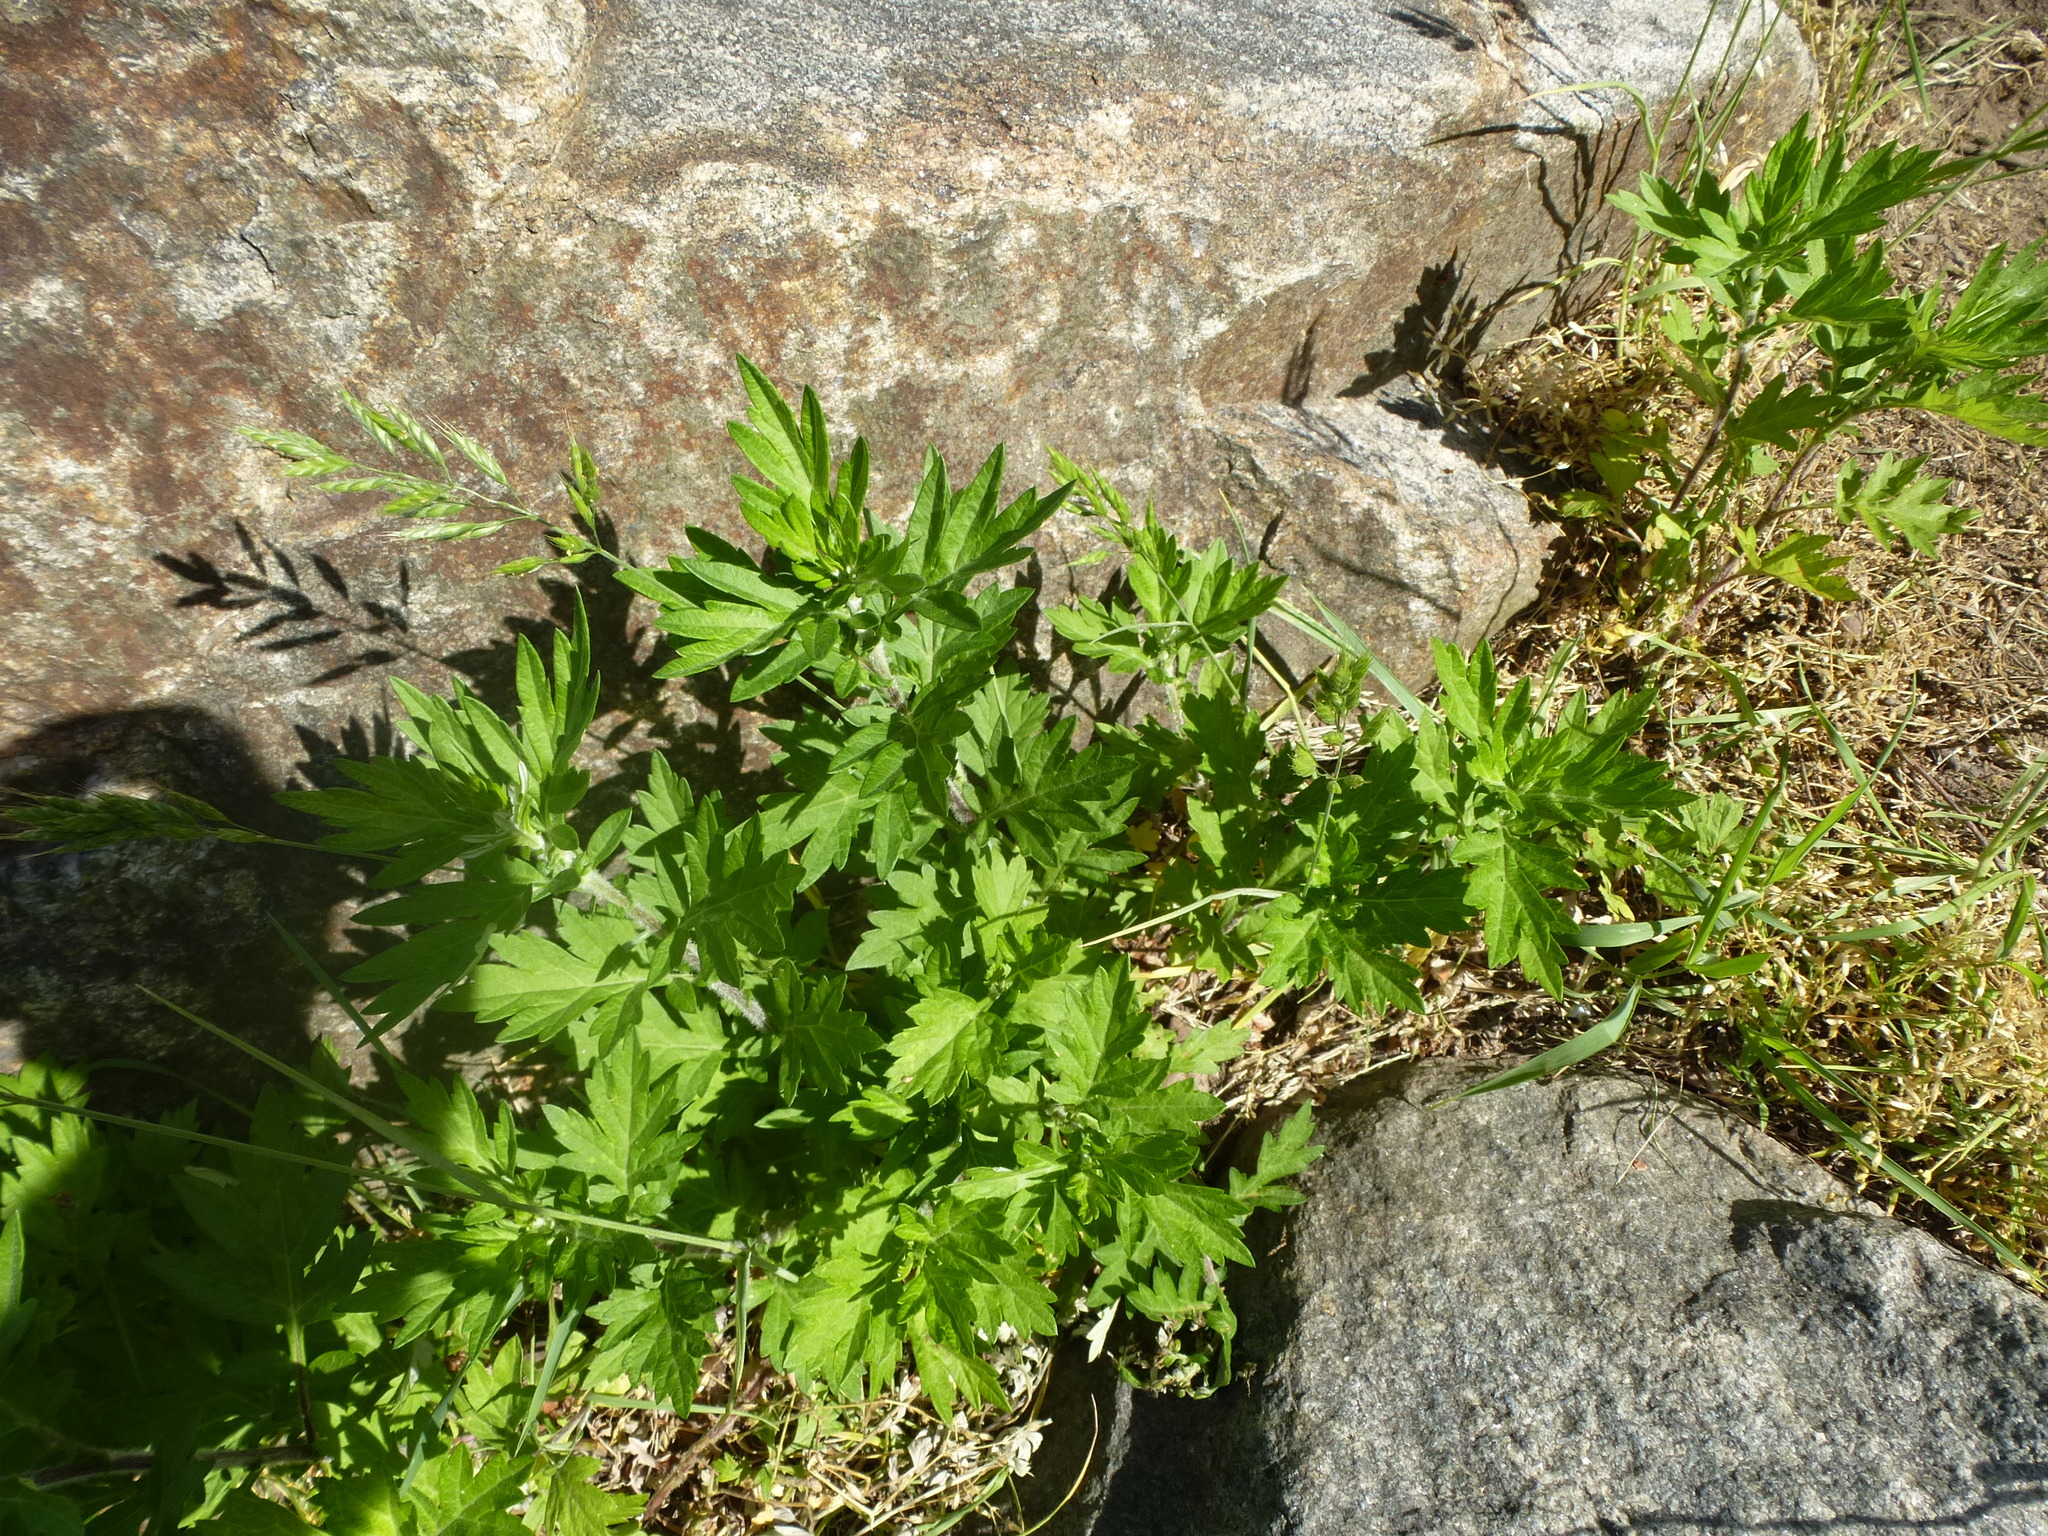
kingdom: Plantae
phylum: Tracheophyta
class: Magnoliopsida
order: Asterales
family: Asteraceae
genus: Artemisia
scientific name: Artemisia vulgaris
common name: Mugwort
